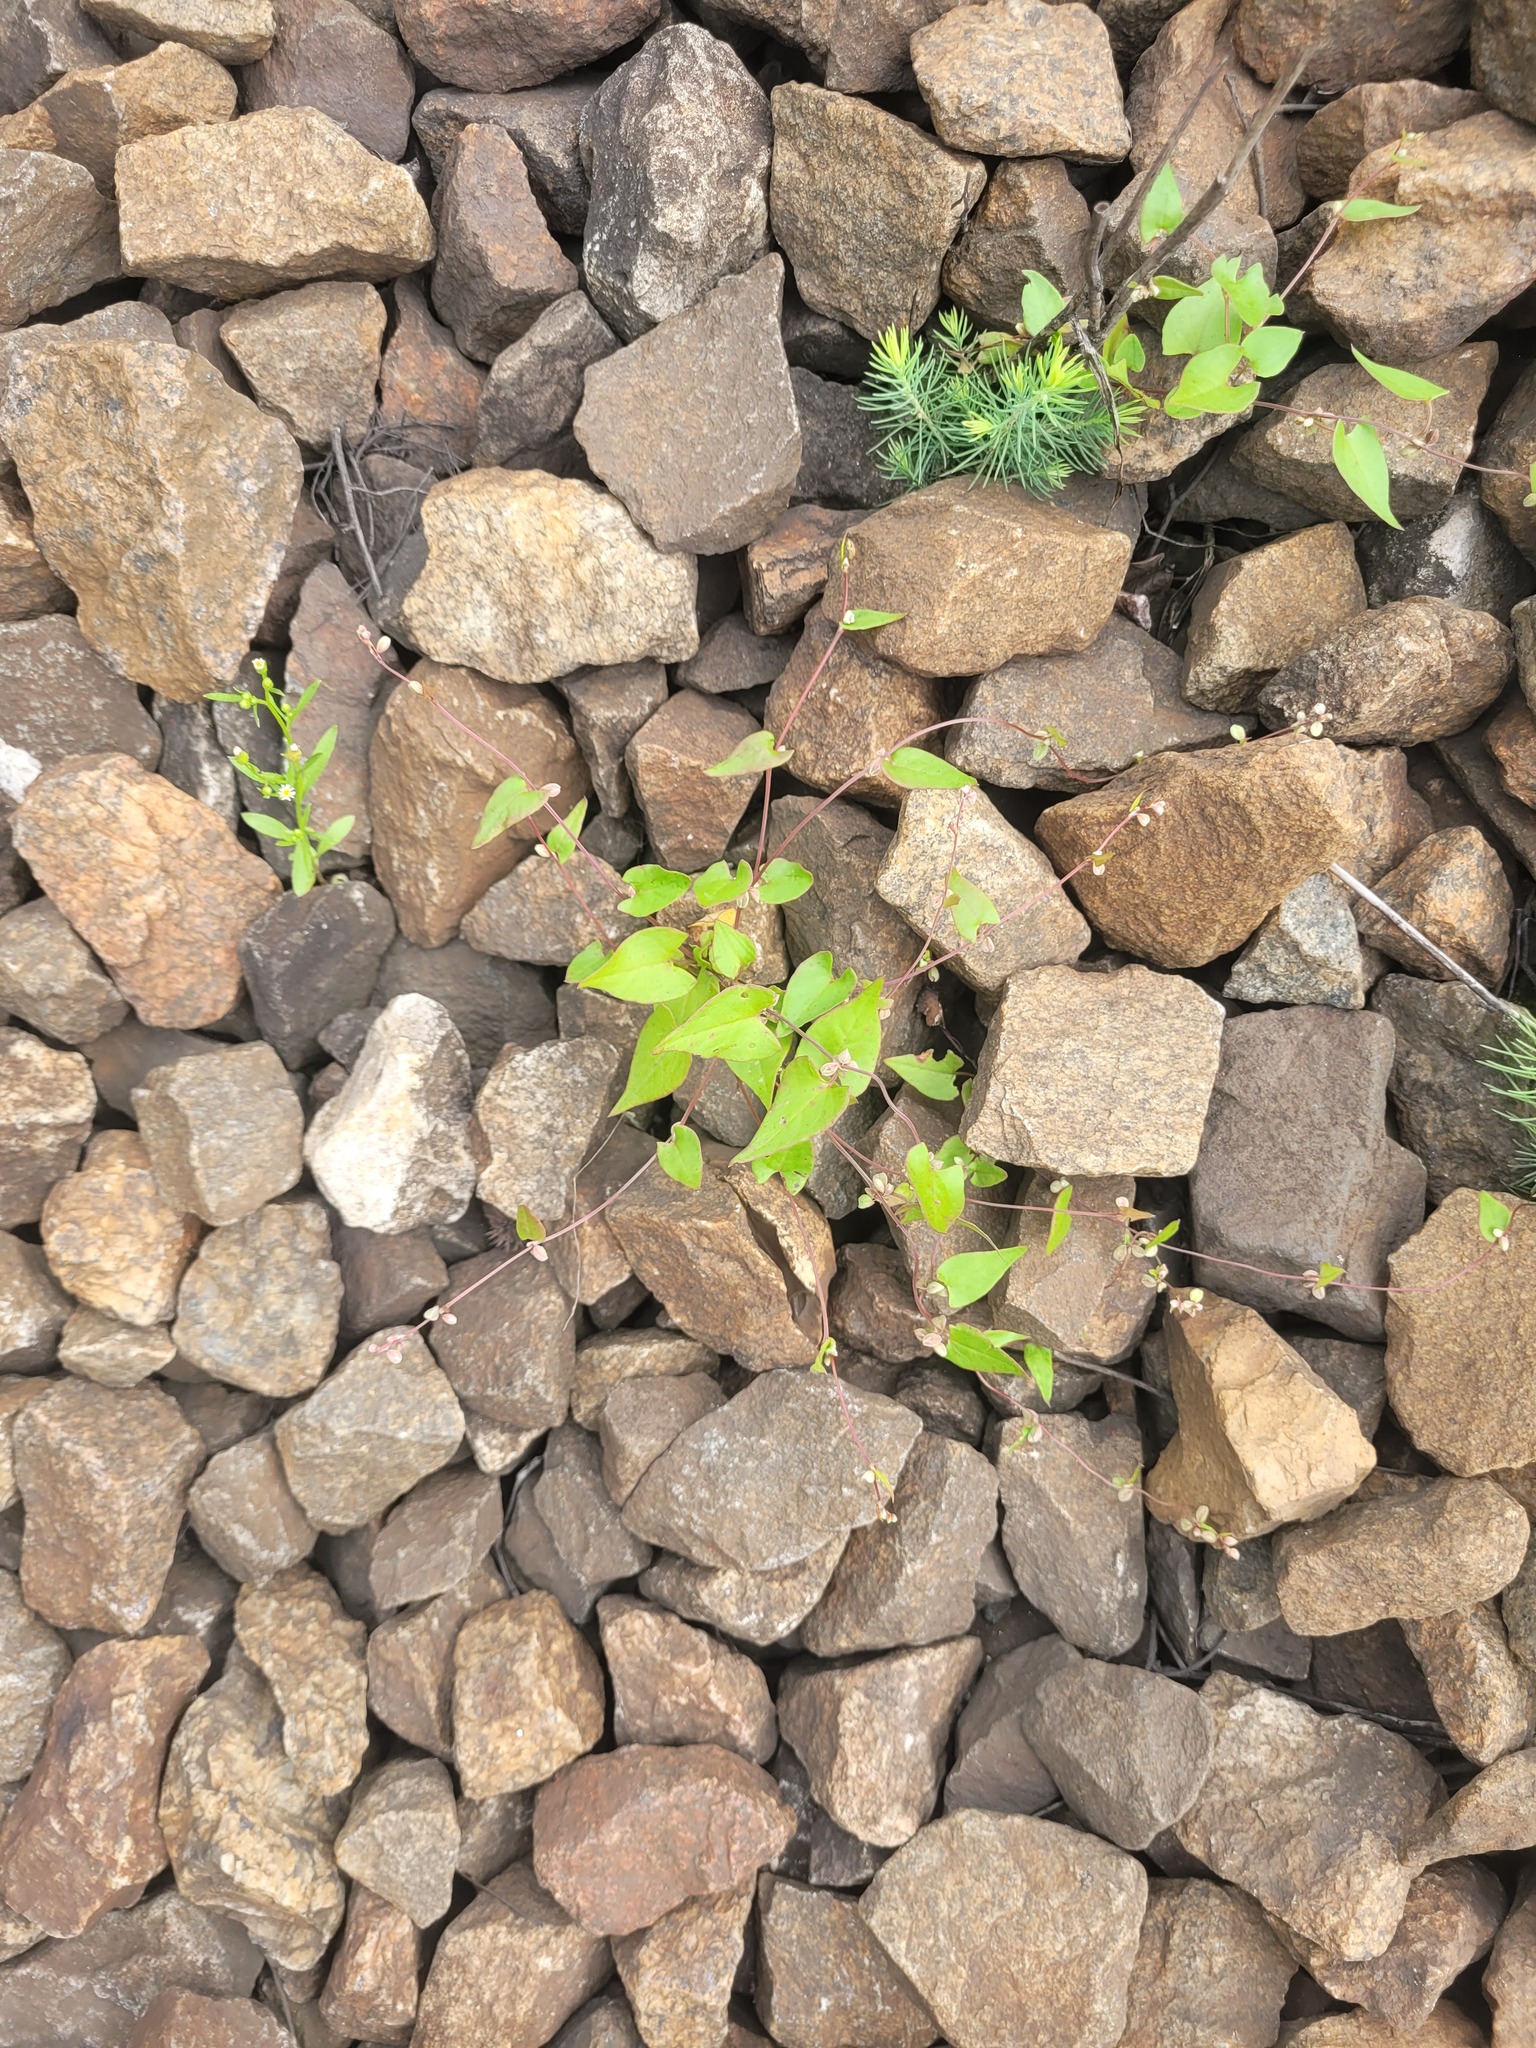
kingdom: Plantae
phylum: Tracheophyta
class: Magnoliopsida
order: Caryophyllales
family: Polygonaceae
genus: Fallopia
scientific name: Fallopia convolvulus
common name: Black bindweed
